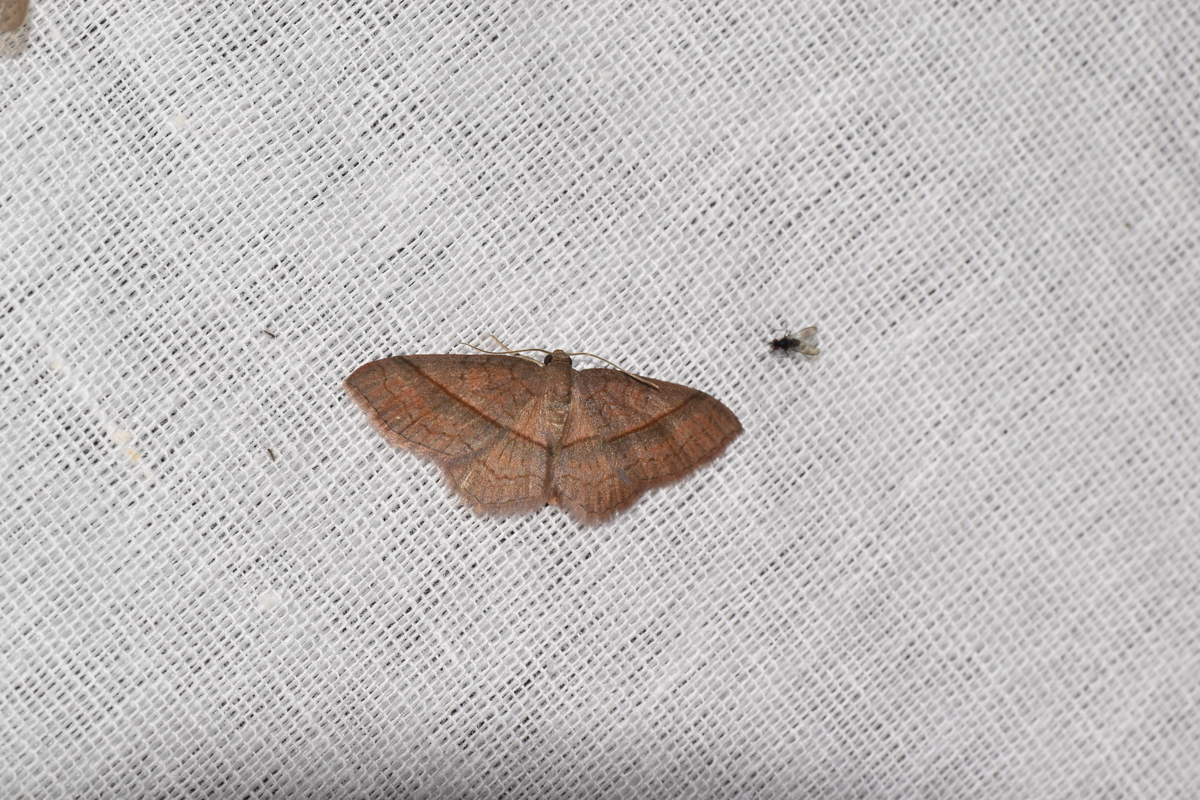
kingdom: Animalia
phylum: Arthropoda
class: Insecta
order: Lepidoptera
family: Geometridae
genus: Hydrelia
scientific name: Hydrelia sericea
